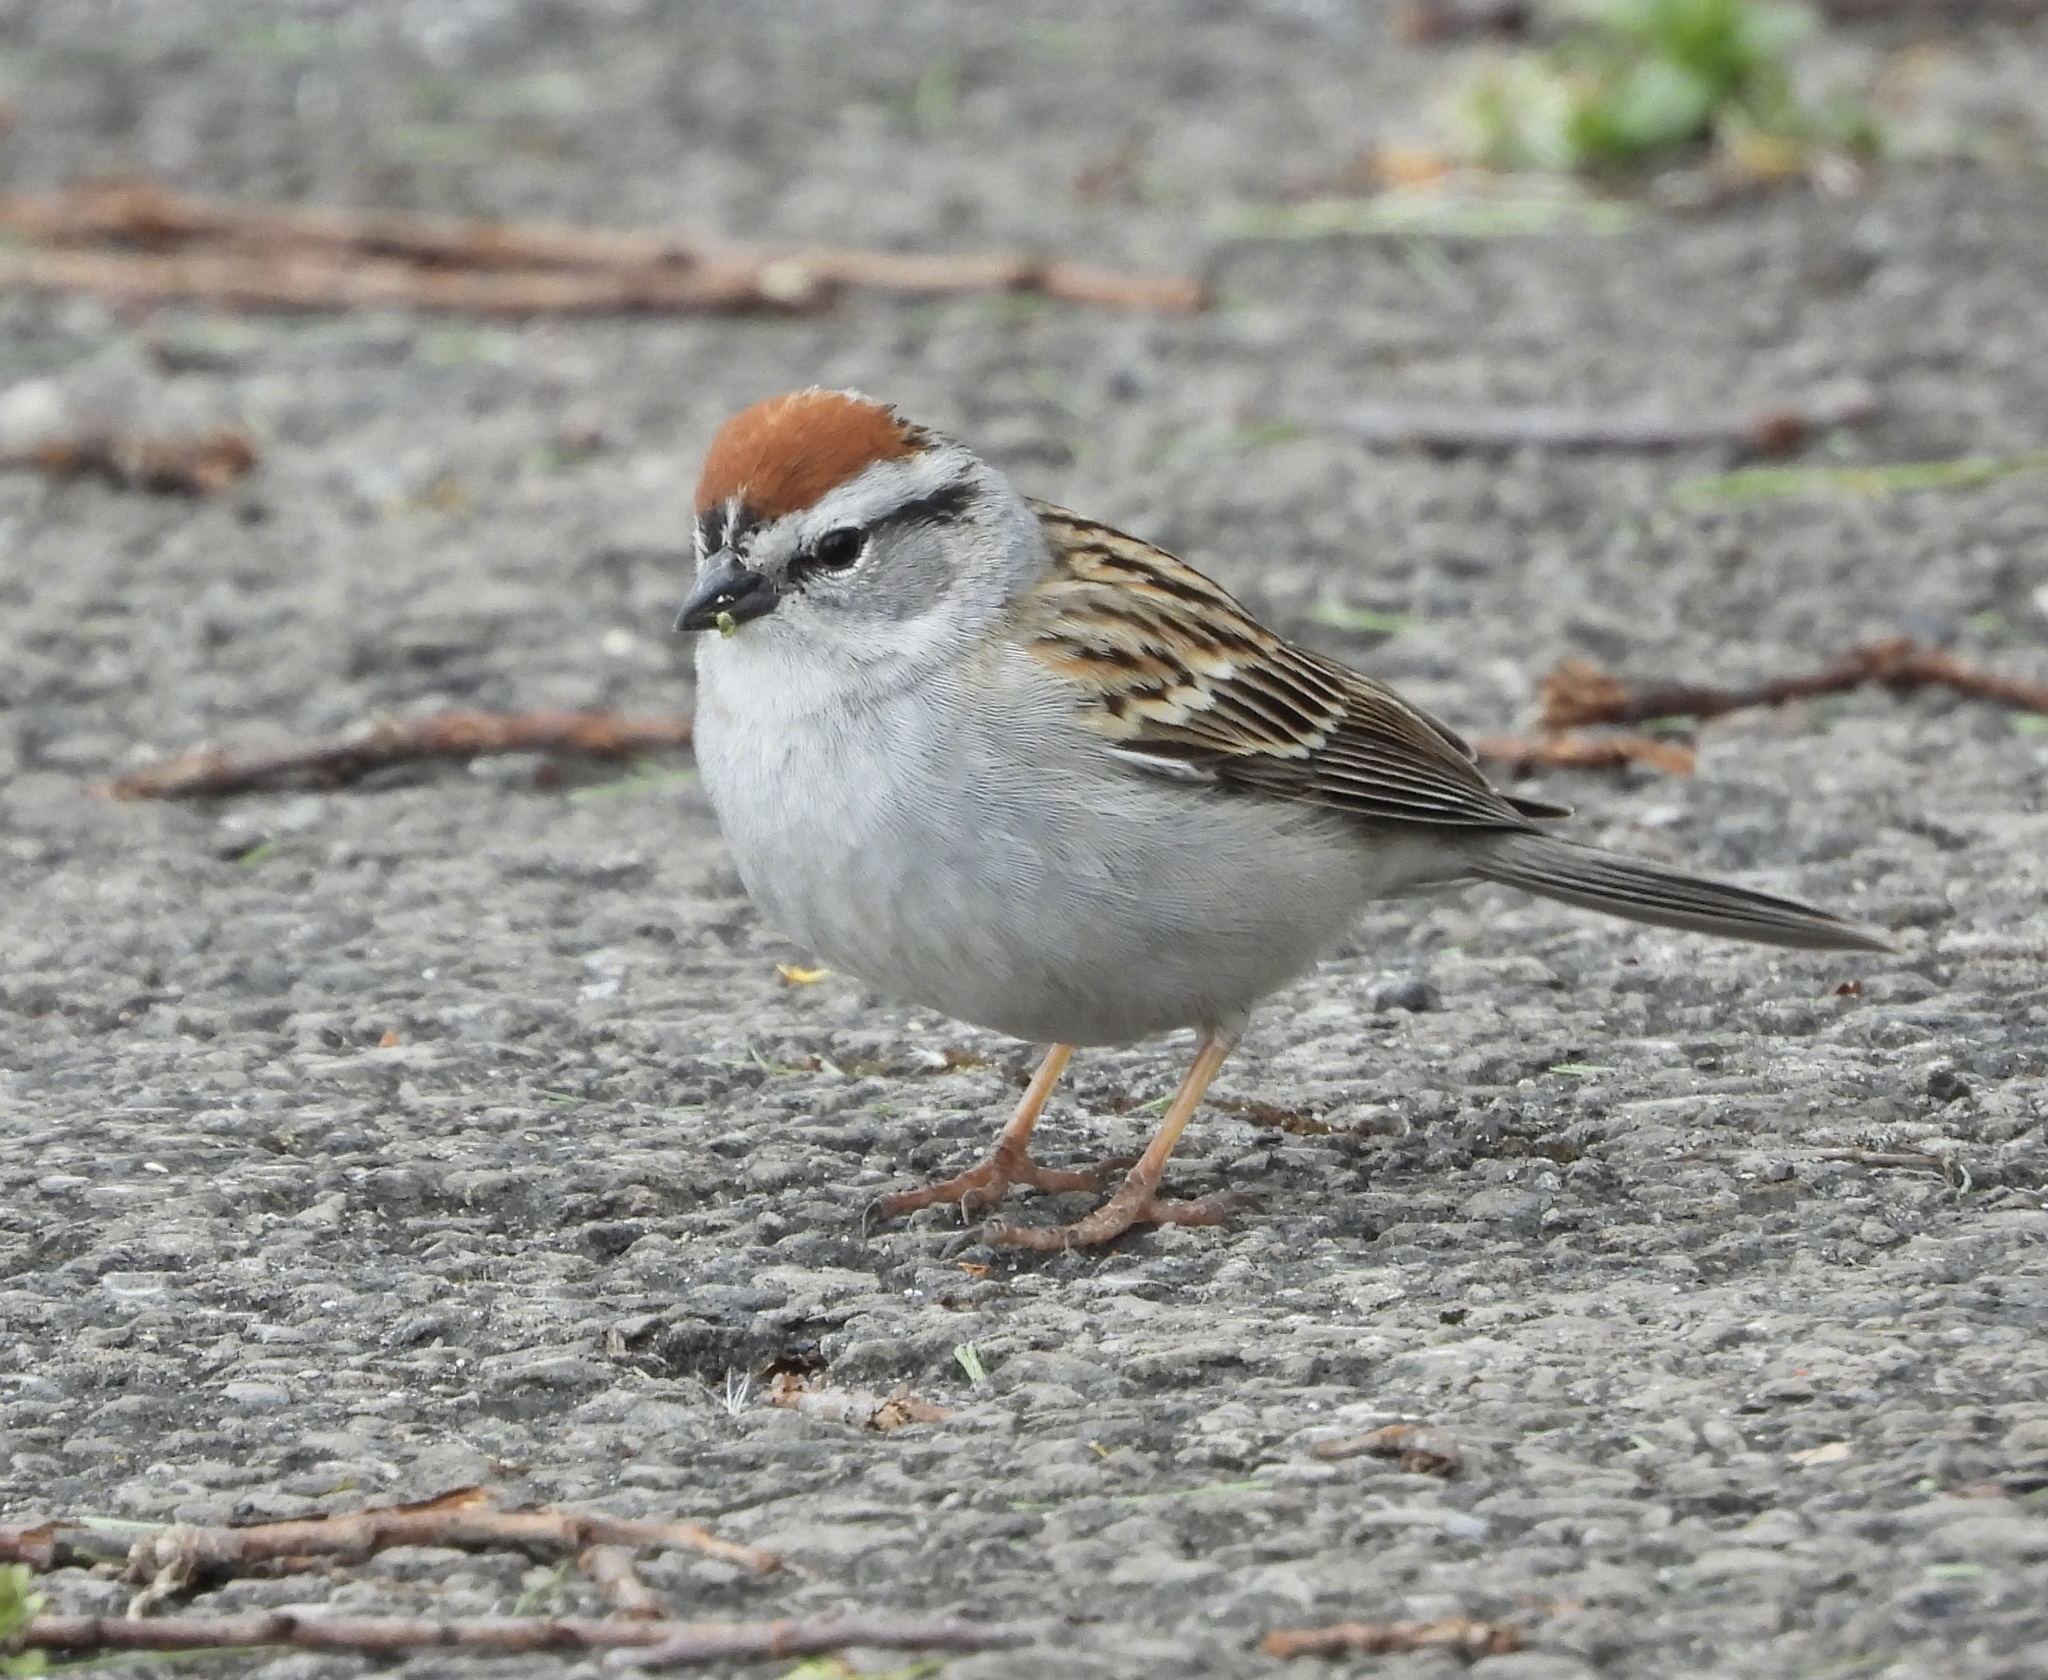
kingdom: Animalia
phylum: Chordata
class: Aves
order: Passeriformes
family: Passerellidae
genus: Spizella
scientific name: Spizella passerina
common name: Chipping sparrow
